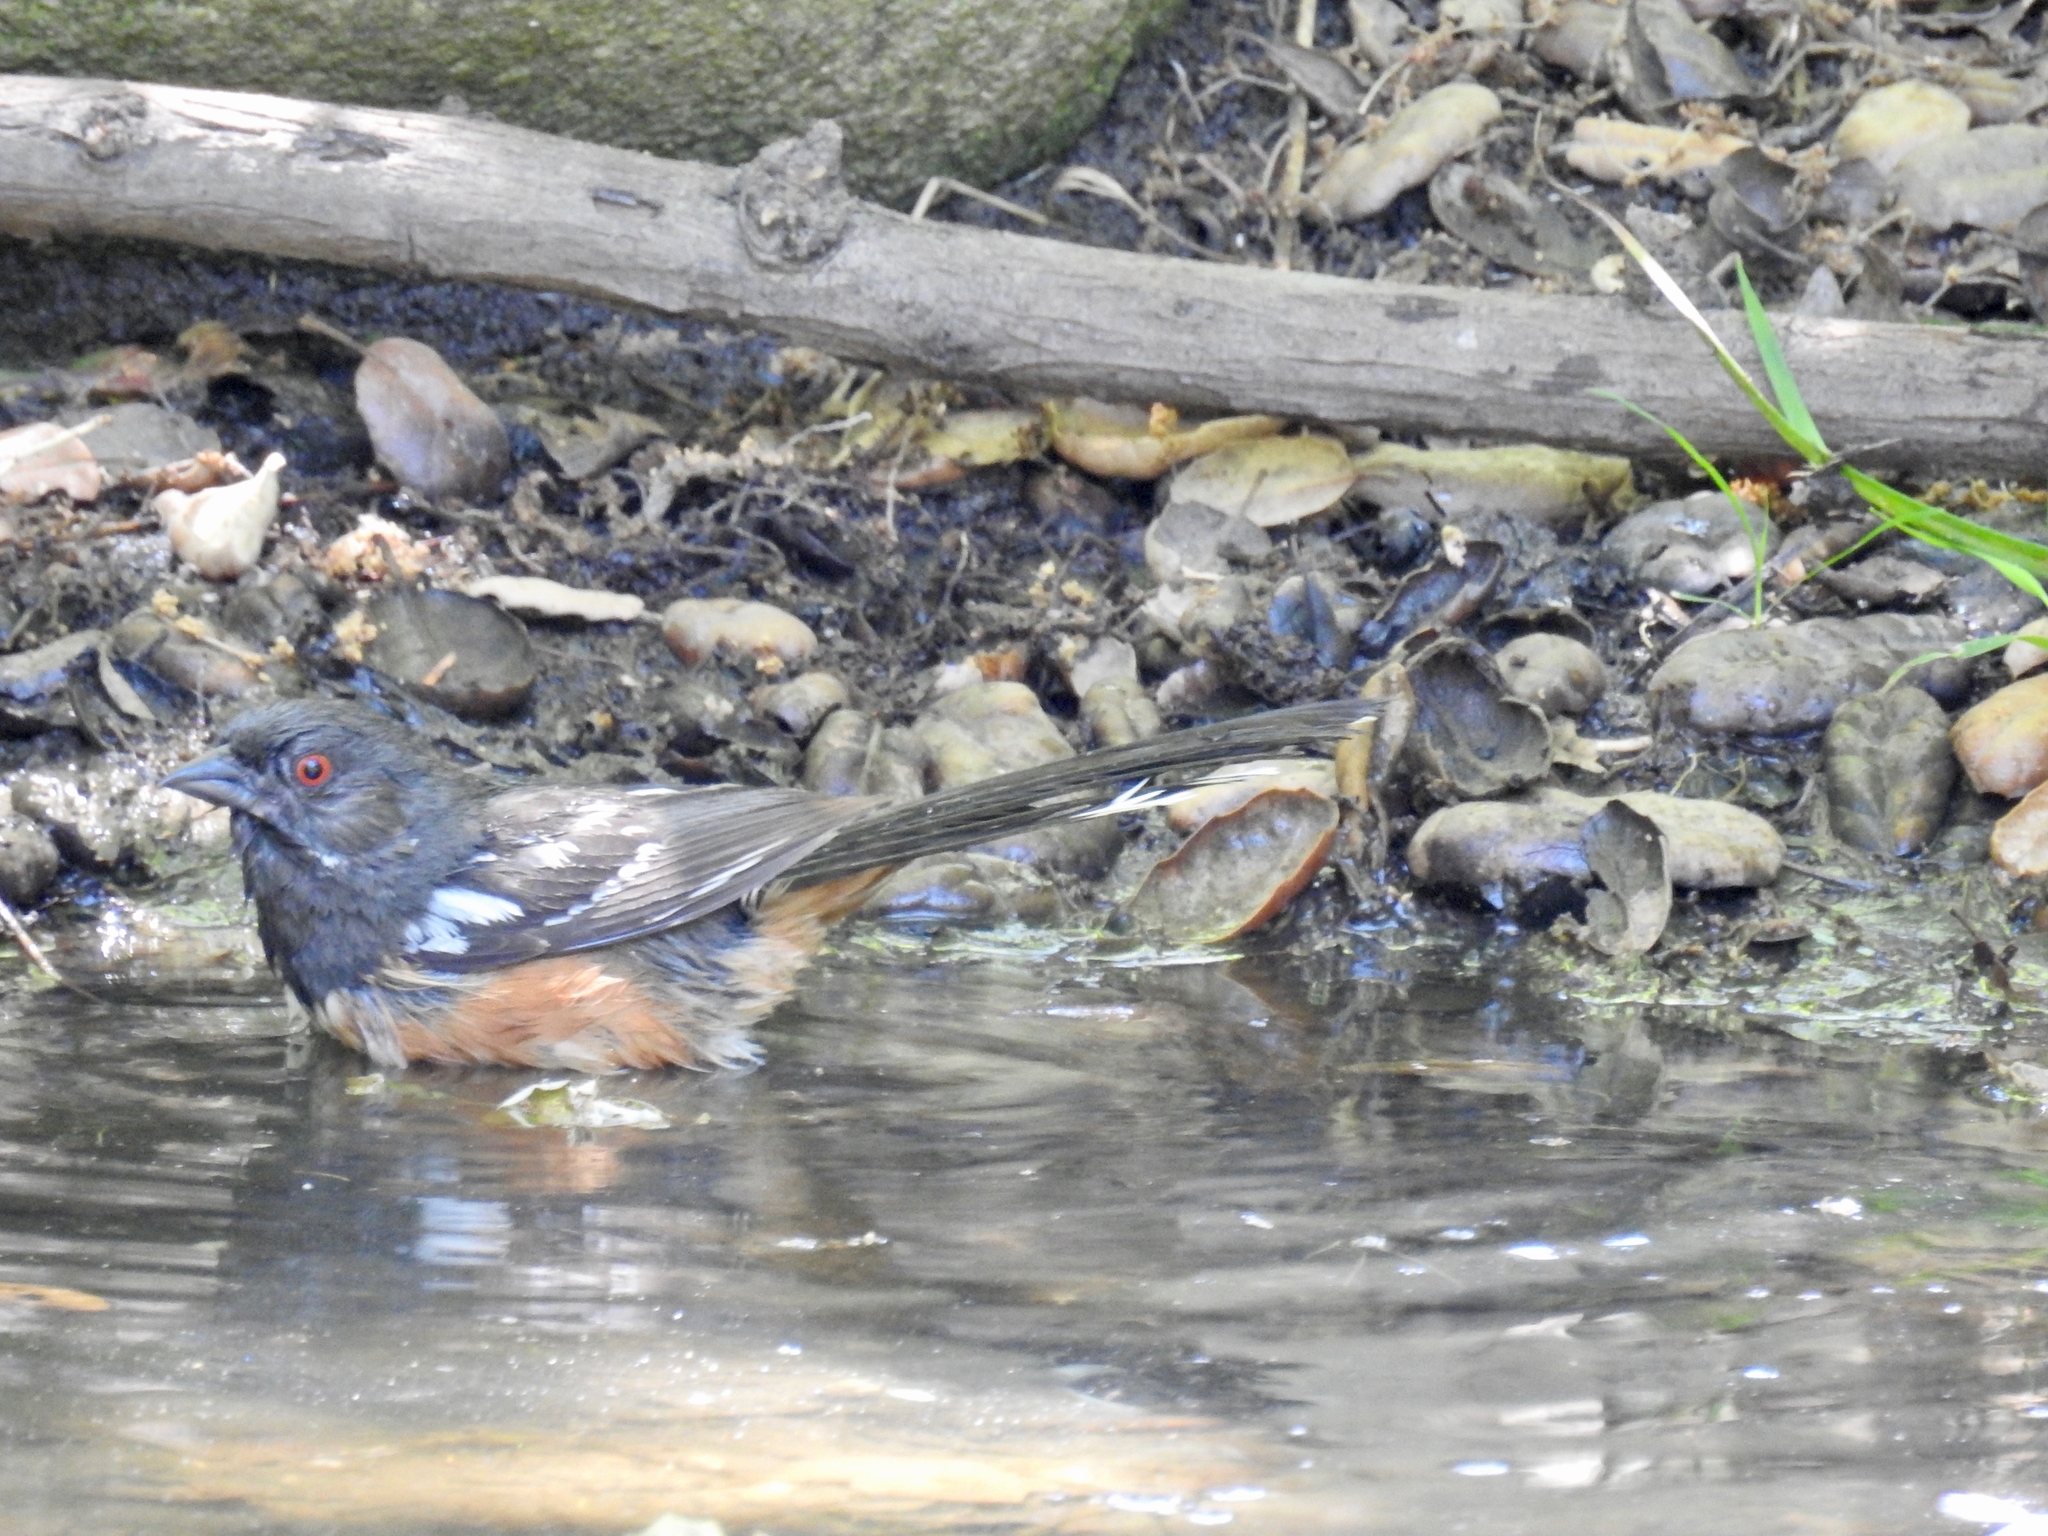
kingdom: Animalia
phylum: Chordata
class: Aves
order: Passeriformes
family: Passerellidae
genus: Pipilo
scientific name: Pipilo maculatus
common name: Spotted towhee
